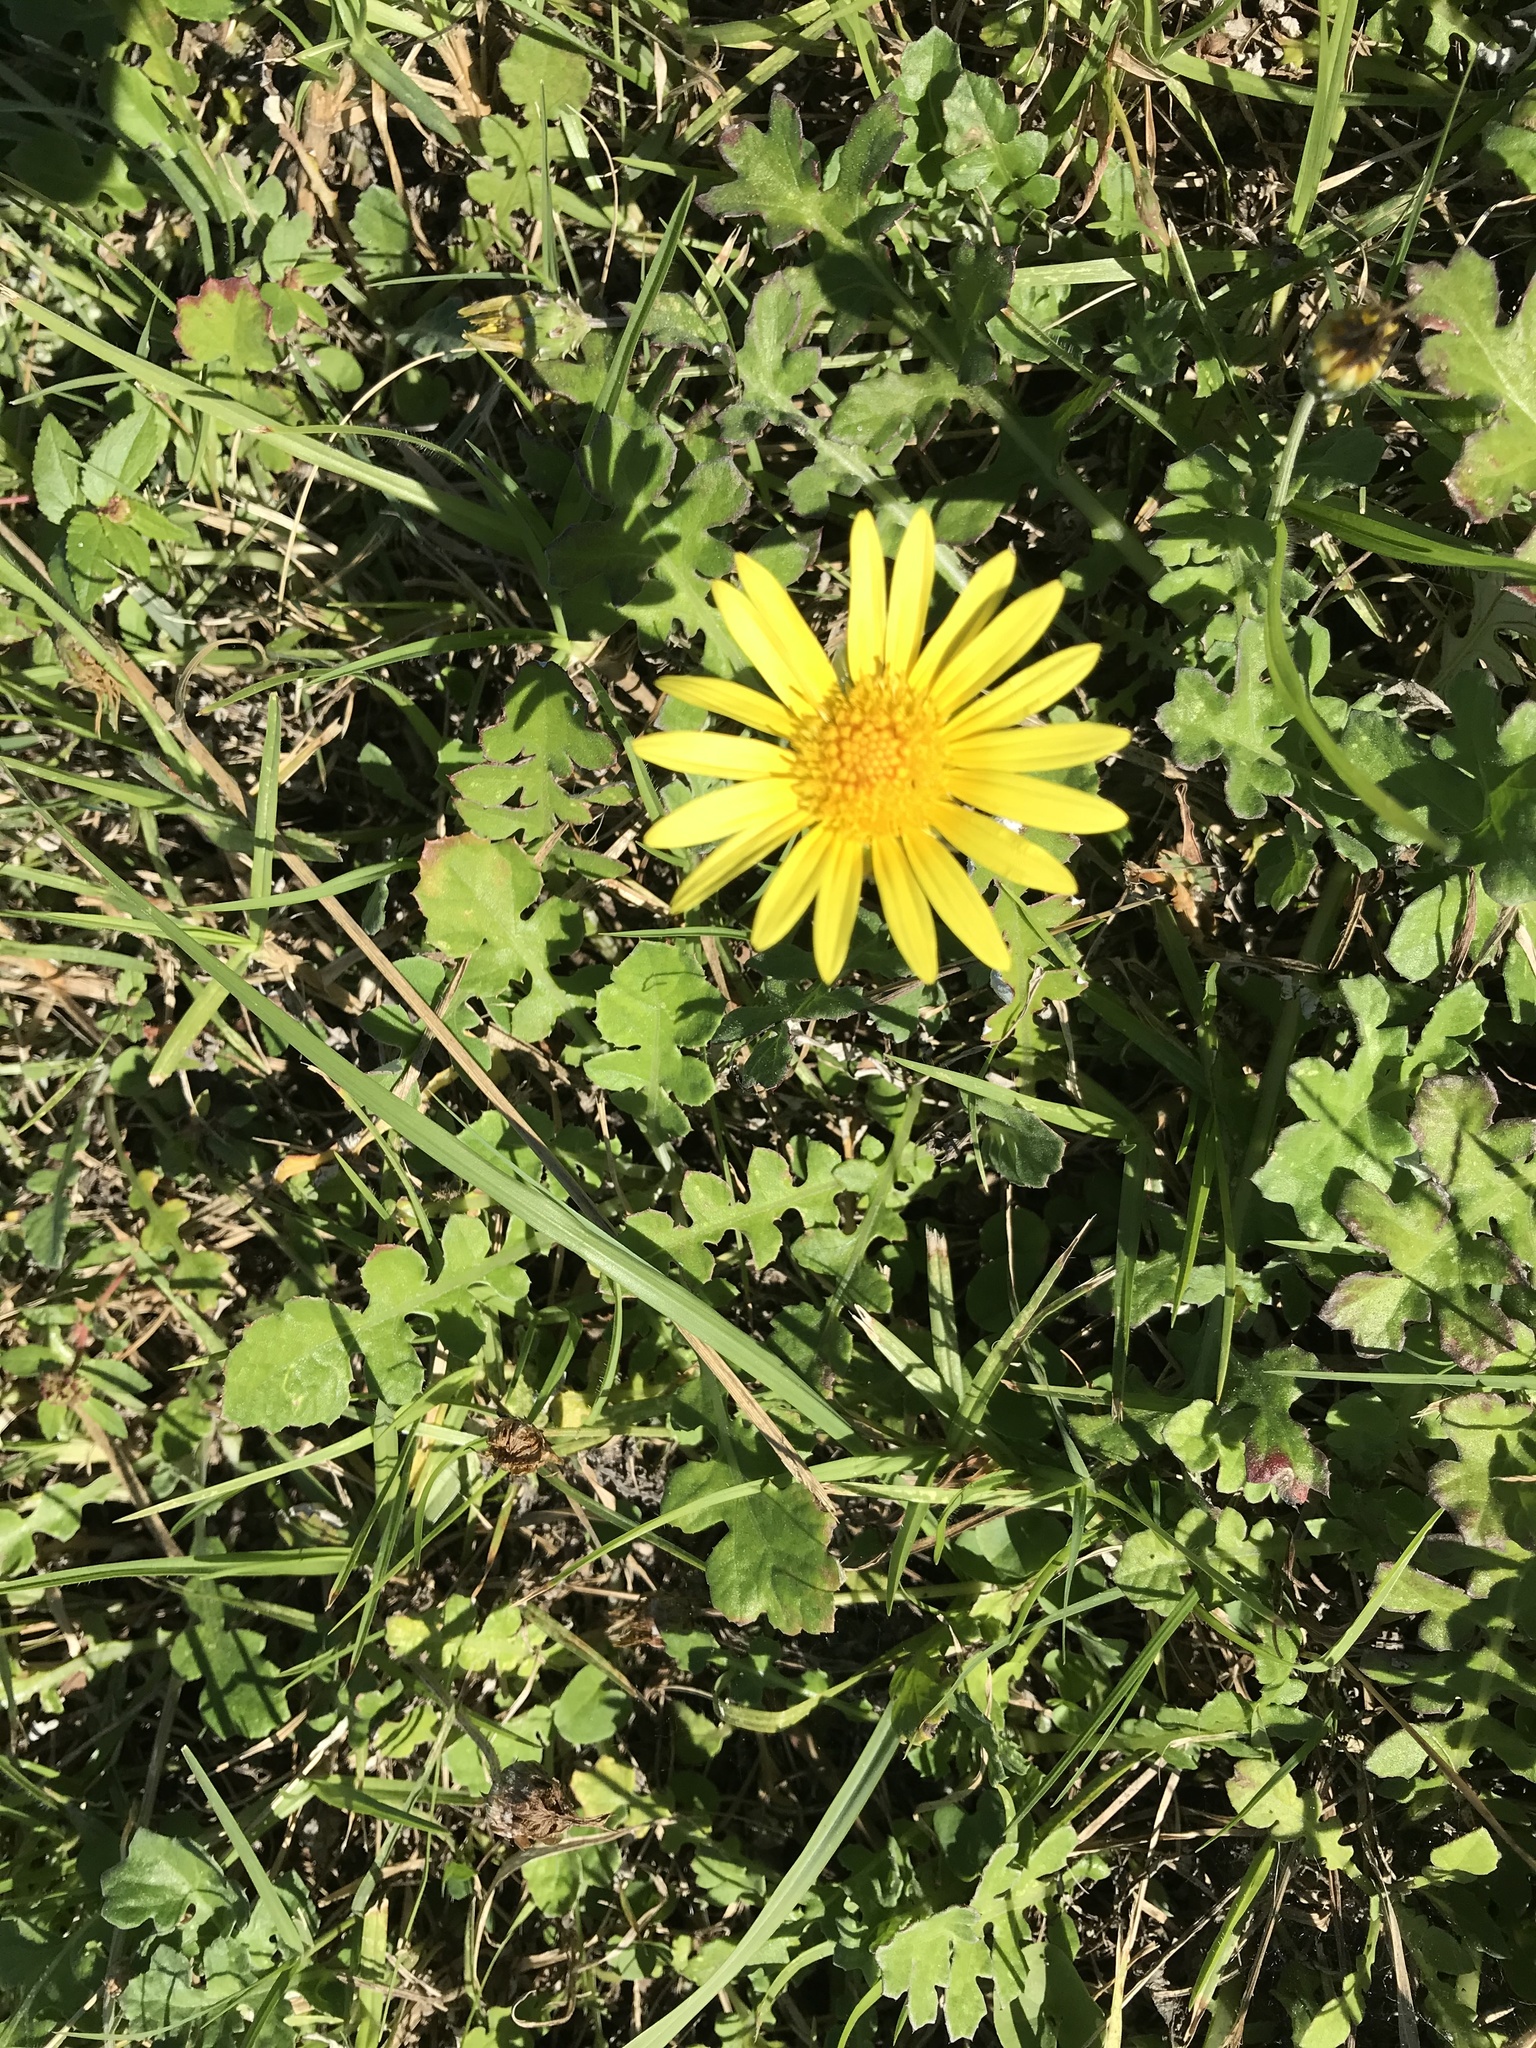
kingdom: Plantae
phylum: Tracheophyta
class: Magnoliopsida
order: Asterales
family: Asteraceae
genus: Arctotheca
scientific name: Arctotheca prostrata
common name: Capeweed
